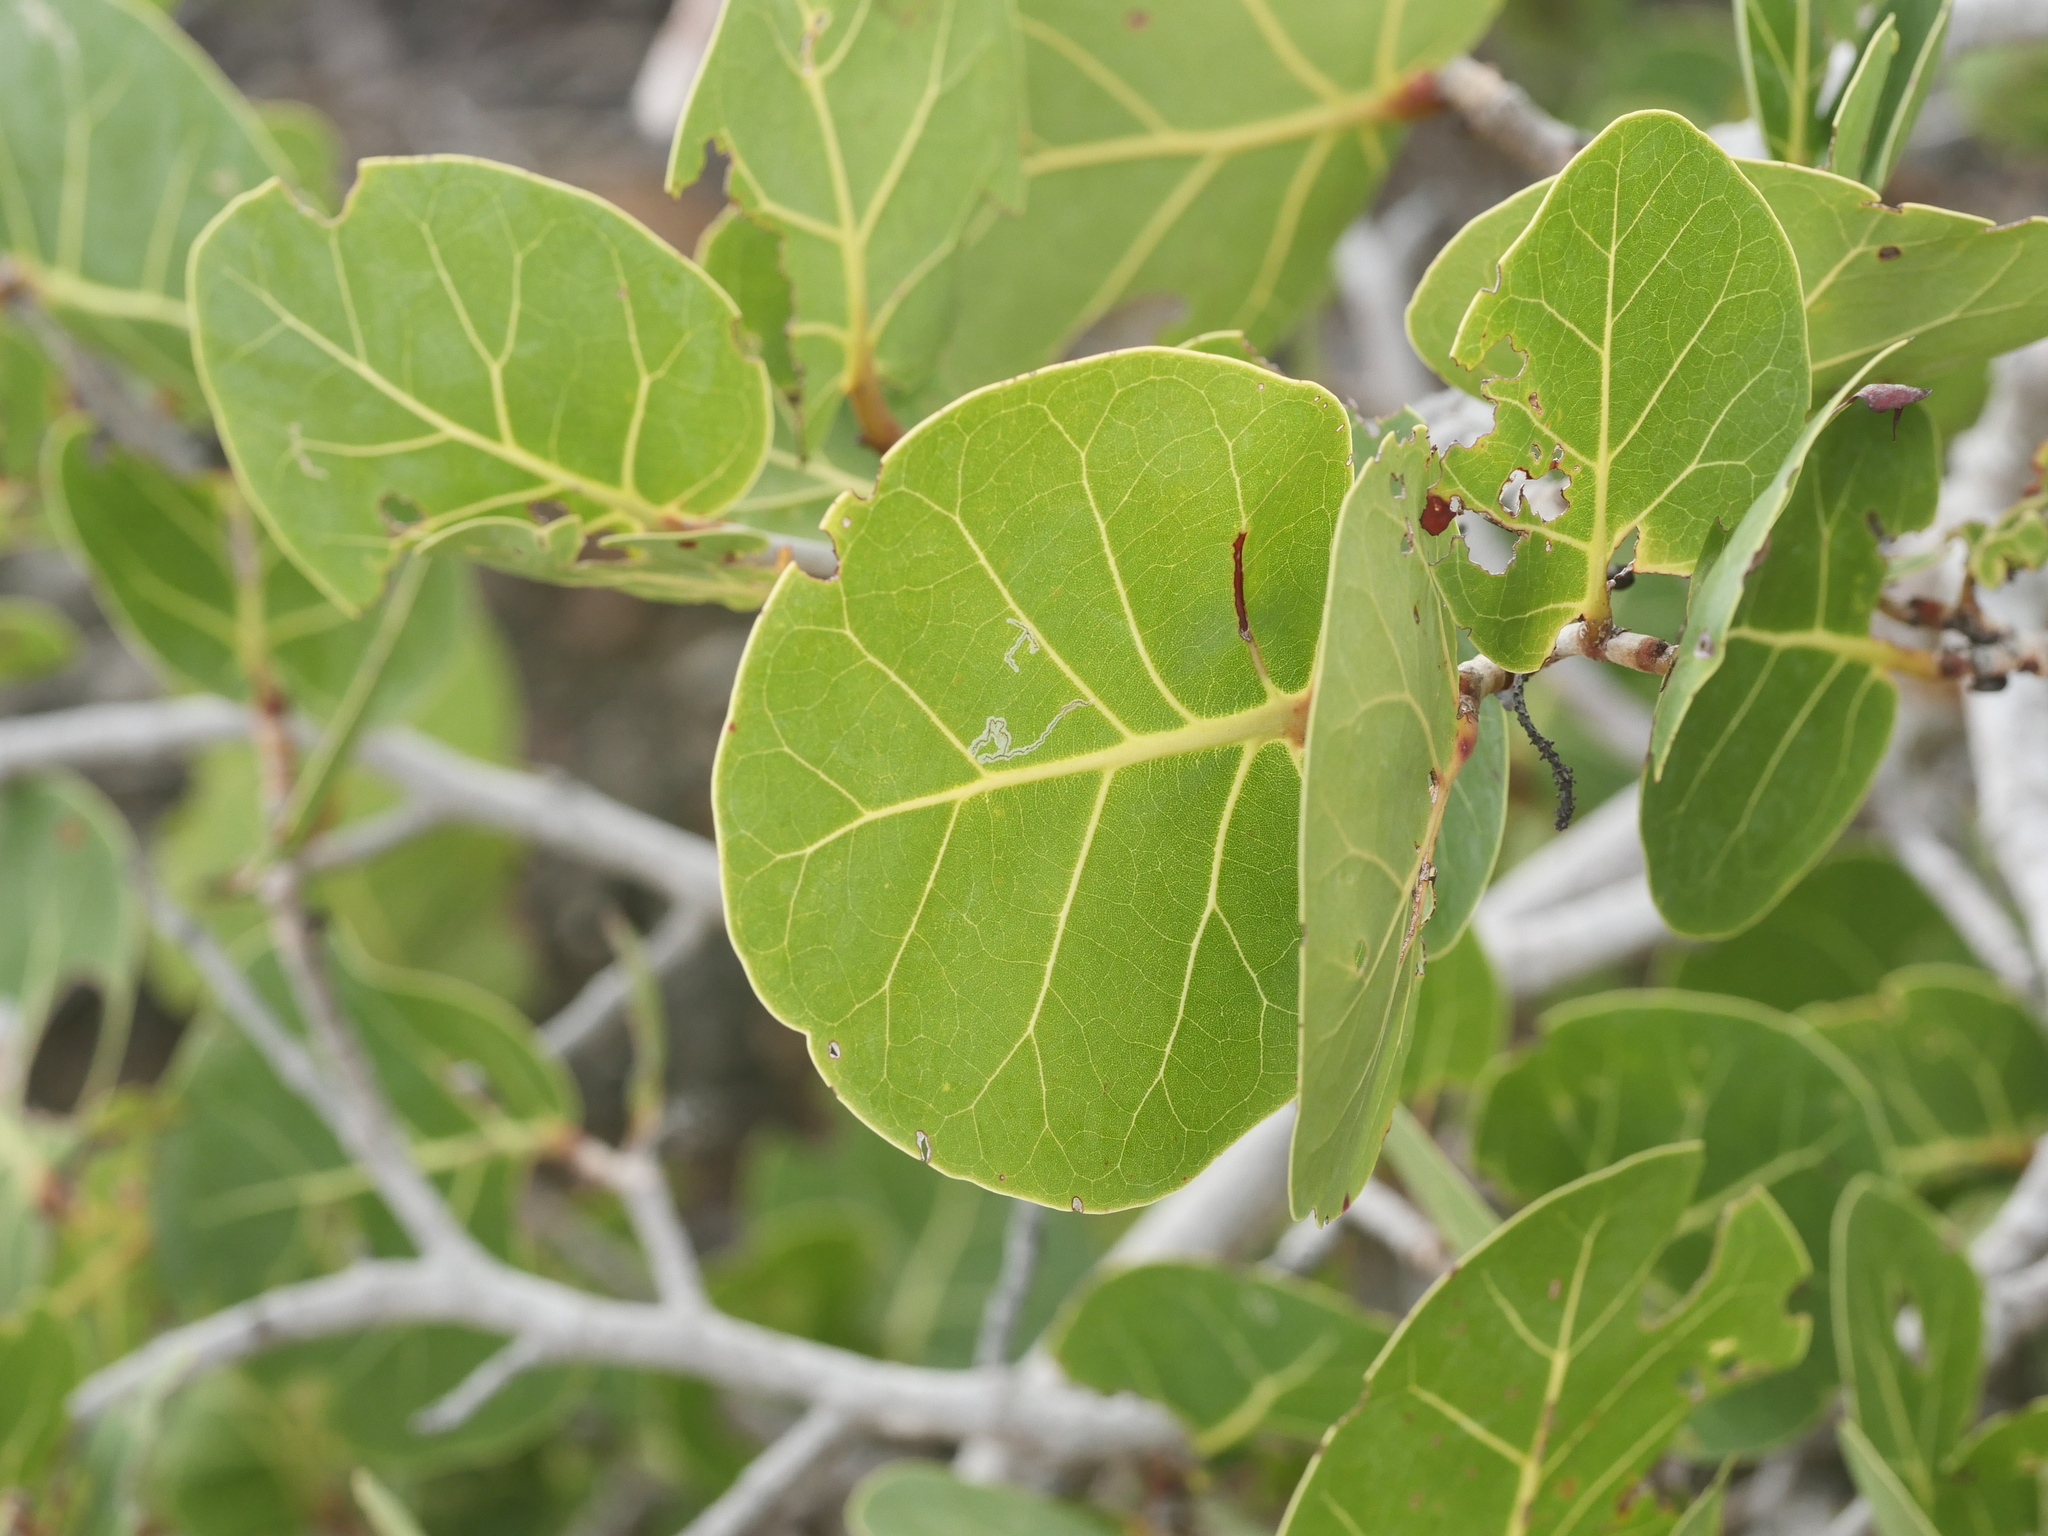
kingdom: Plantae
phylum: Tracheophyta
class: Magnoliopsida
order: Caryophyllales
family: Polygonaceae
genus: Coccoloba
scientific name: Coccoloba uvifera
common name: Seagrape
